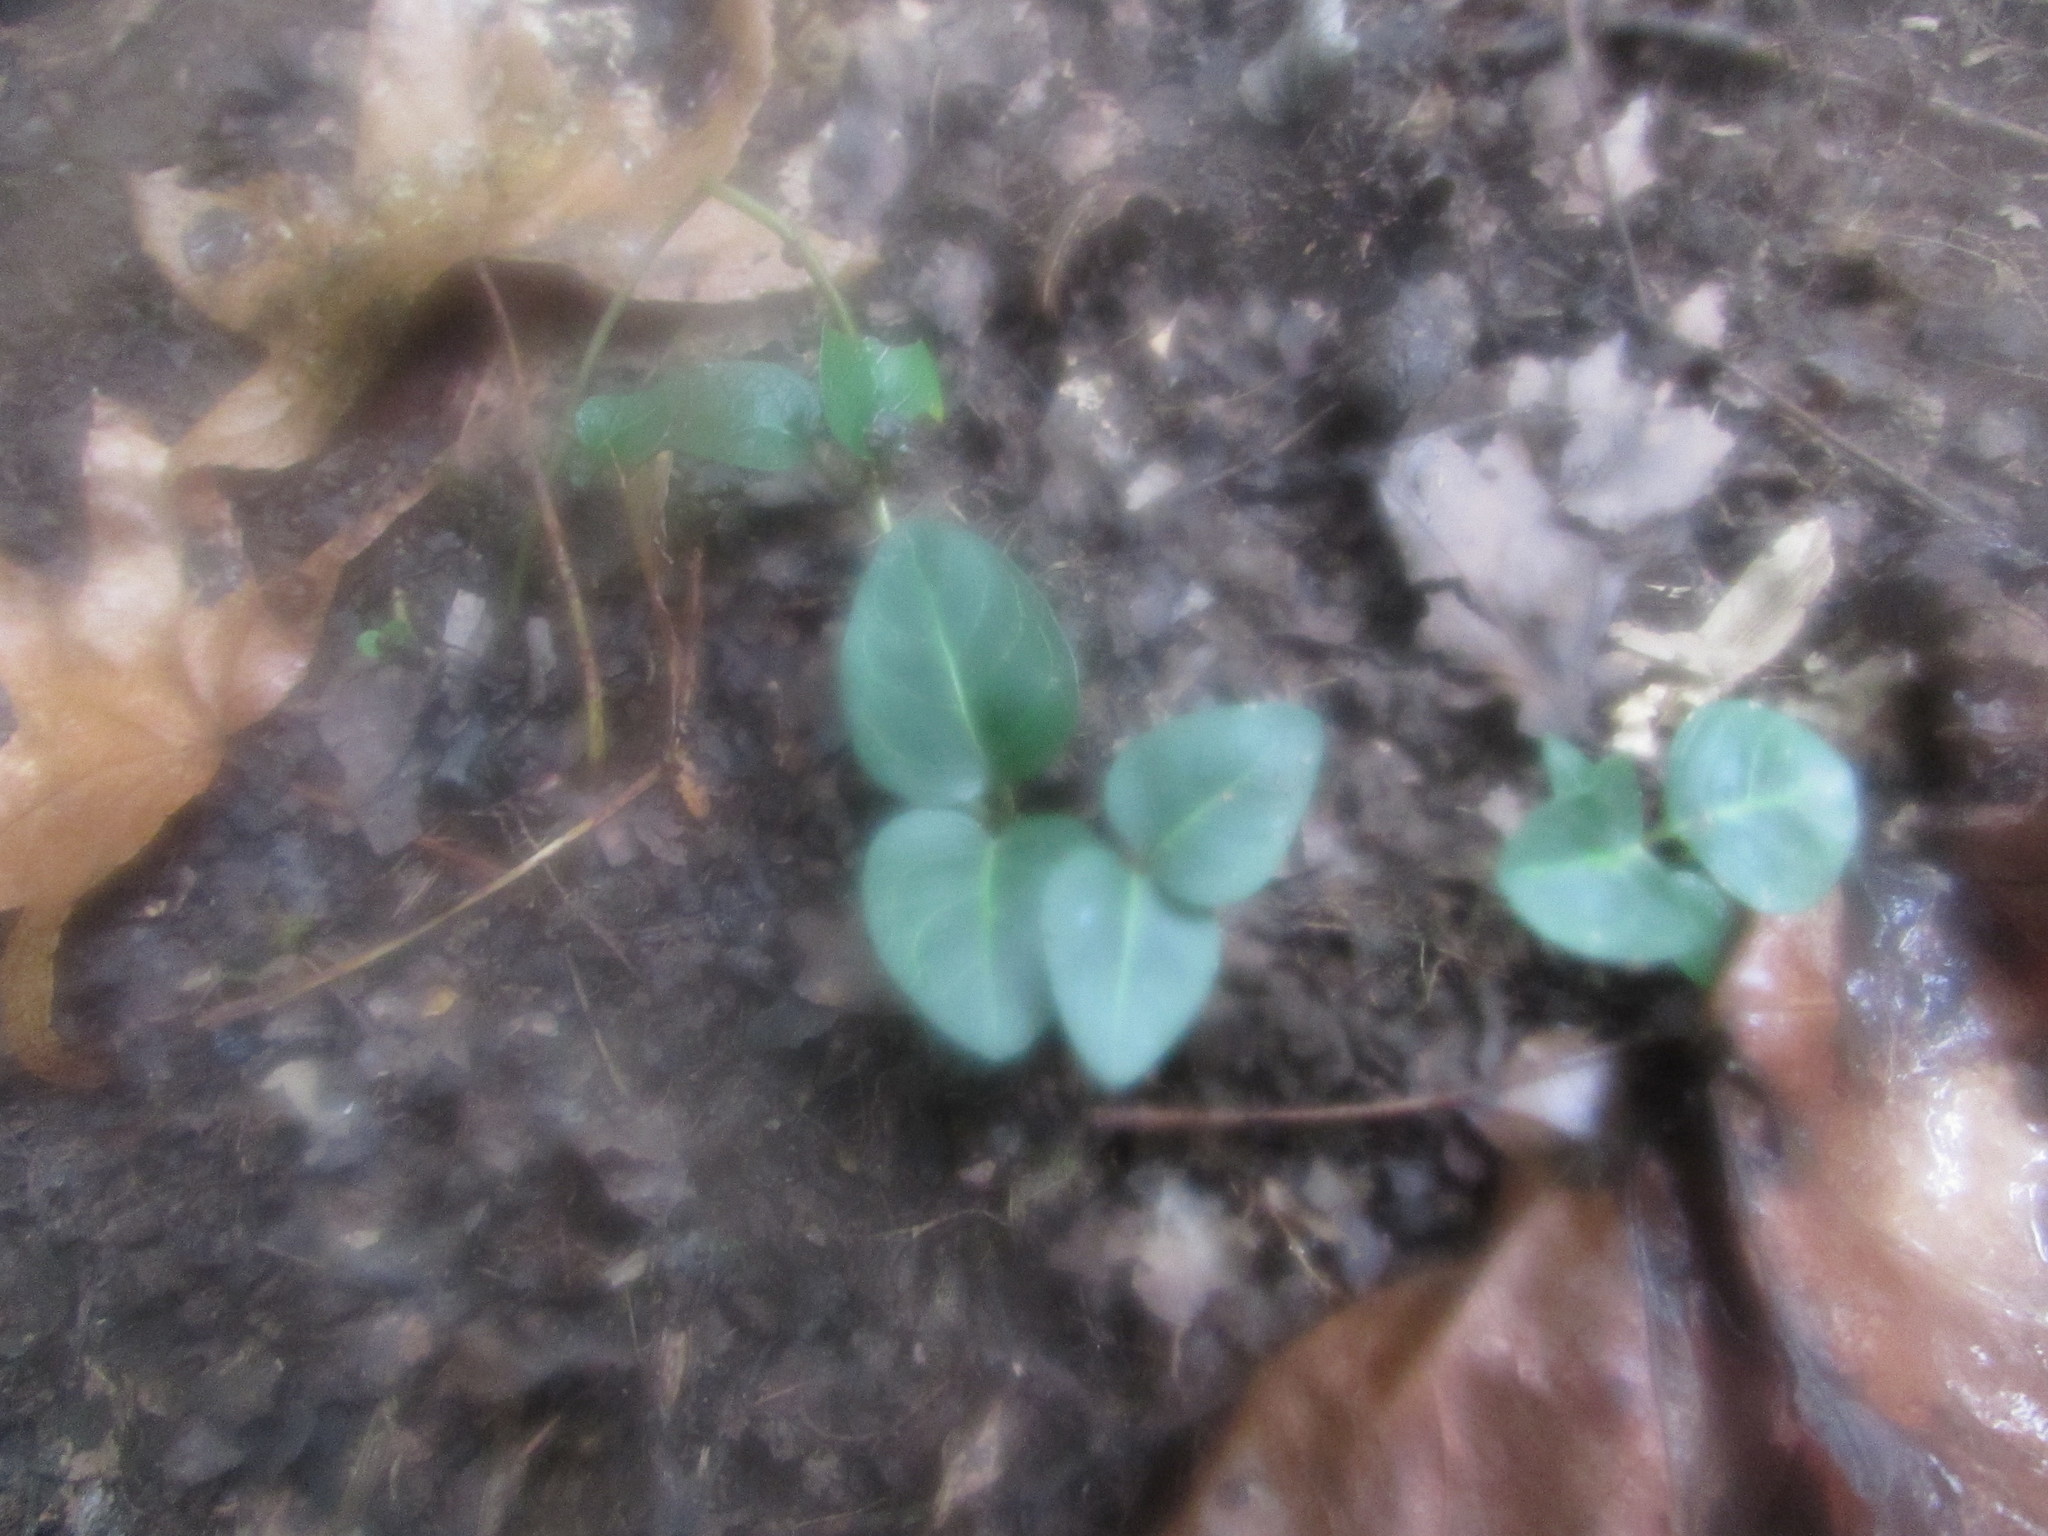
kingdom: Plantae
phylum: Tracheophyta
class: Magnoliopsida
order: Gentianales
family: Rubiaceae
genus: Mitchella
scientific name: Mitchella repens
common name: Partridge-berry
